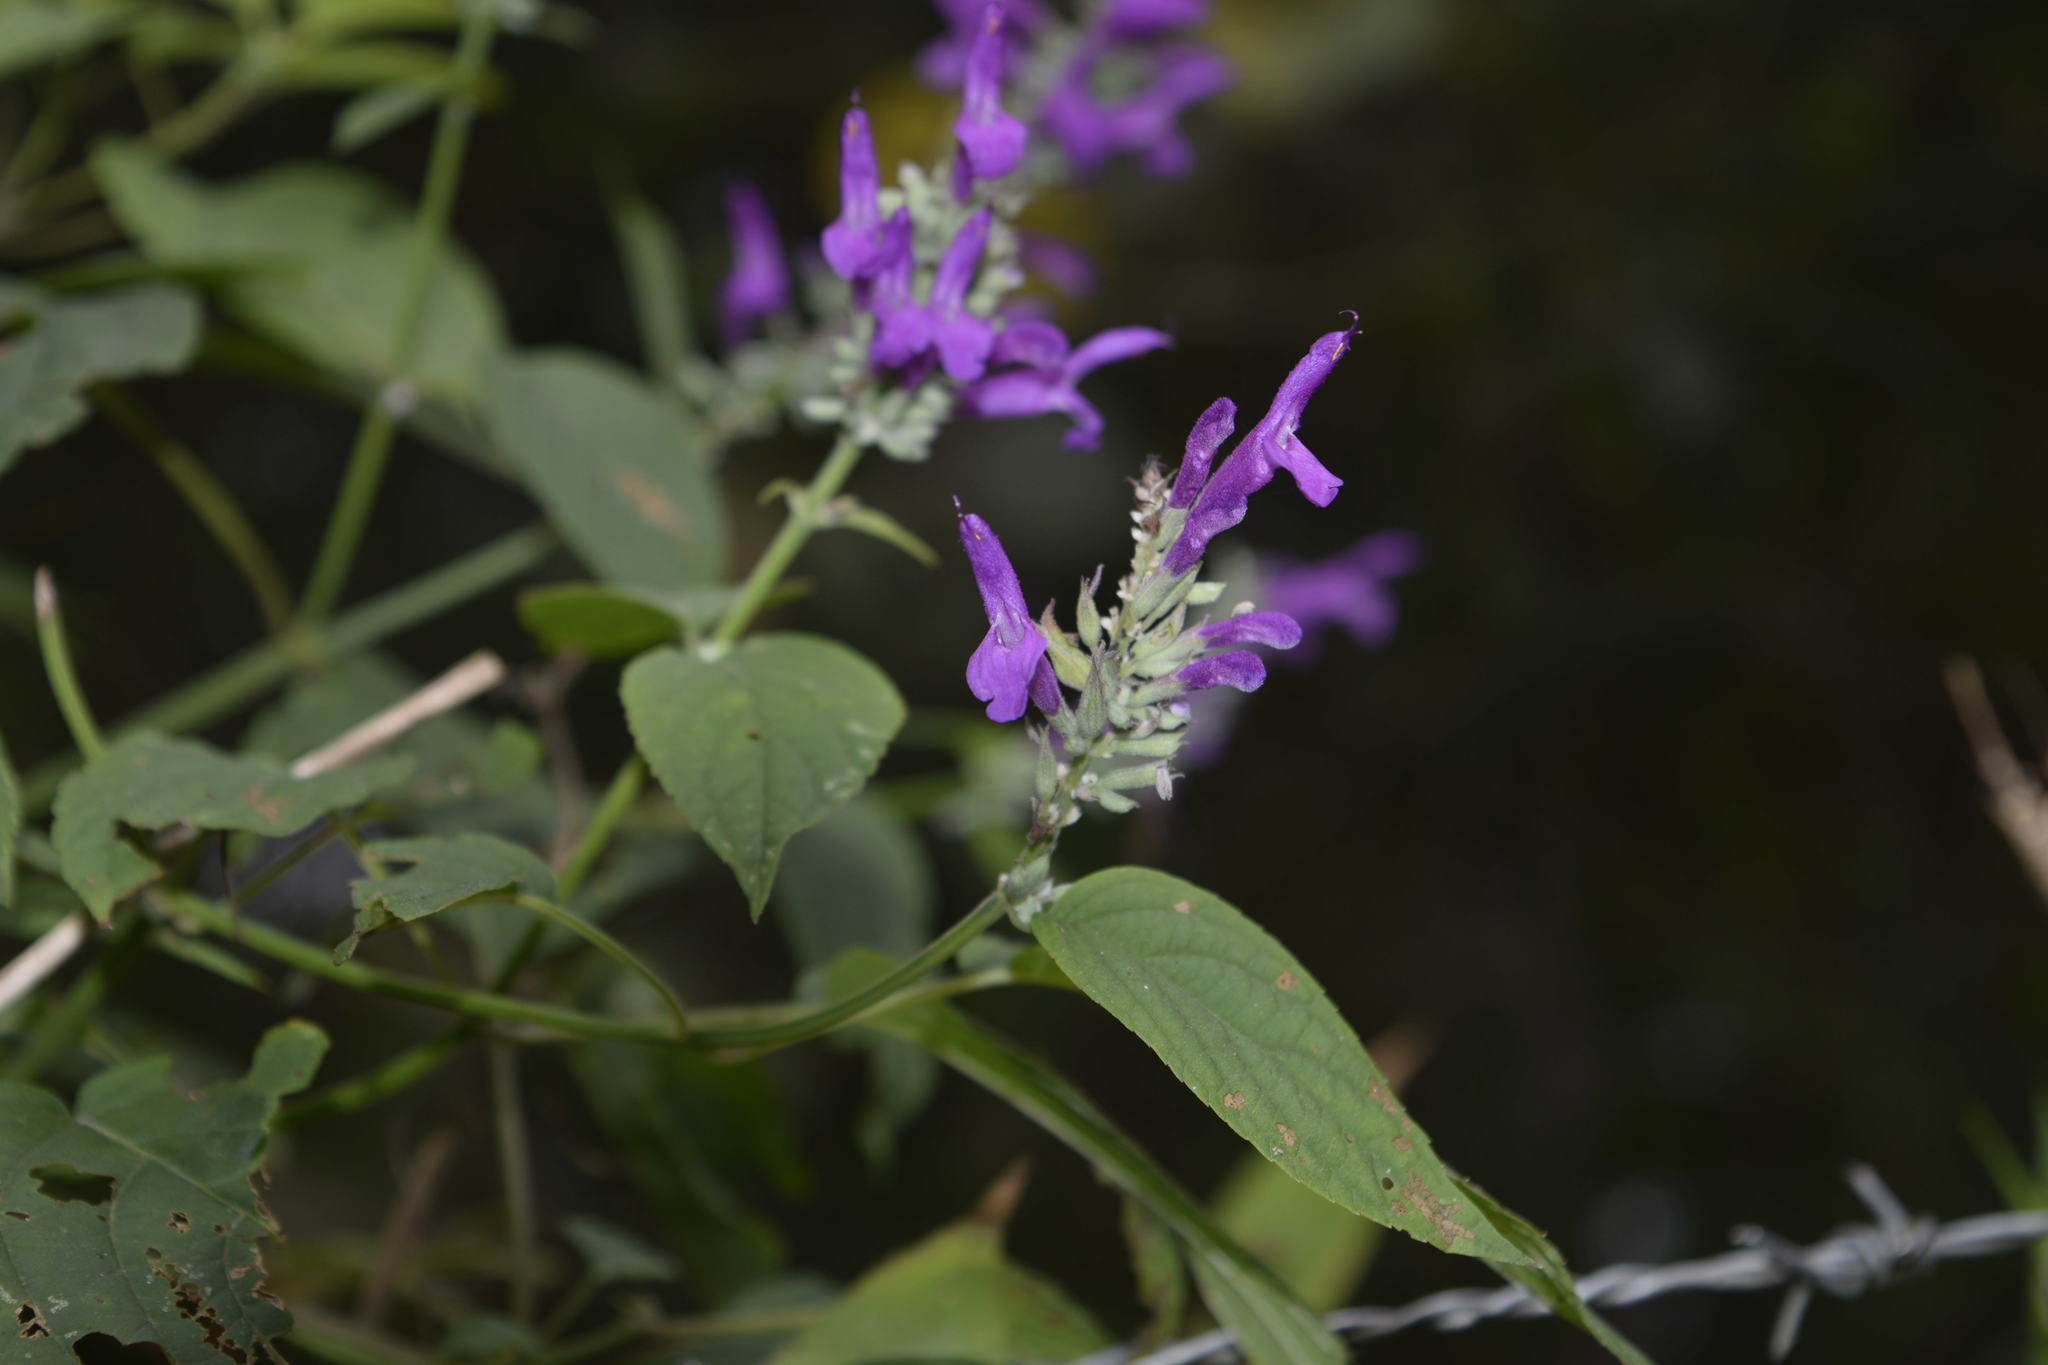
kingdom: Plantae
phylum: Tracheophyta
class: Magnoliopsida
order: Lamiales
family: Lamiaceae
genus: Salvia
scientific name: Salvia purpurea
